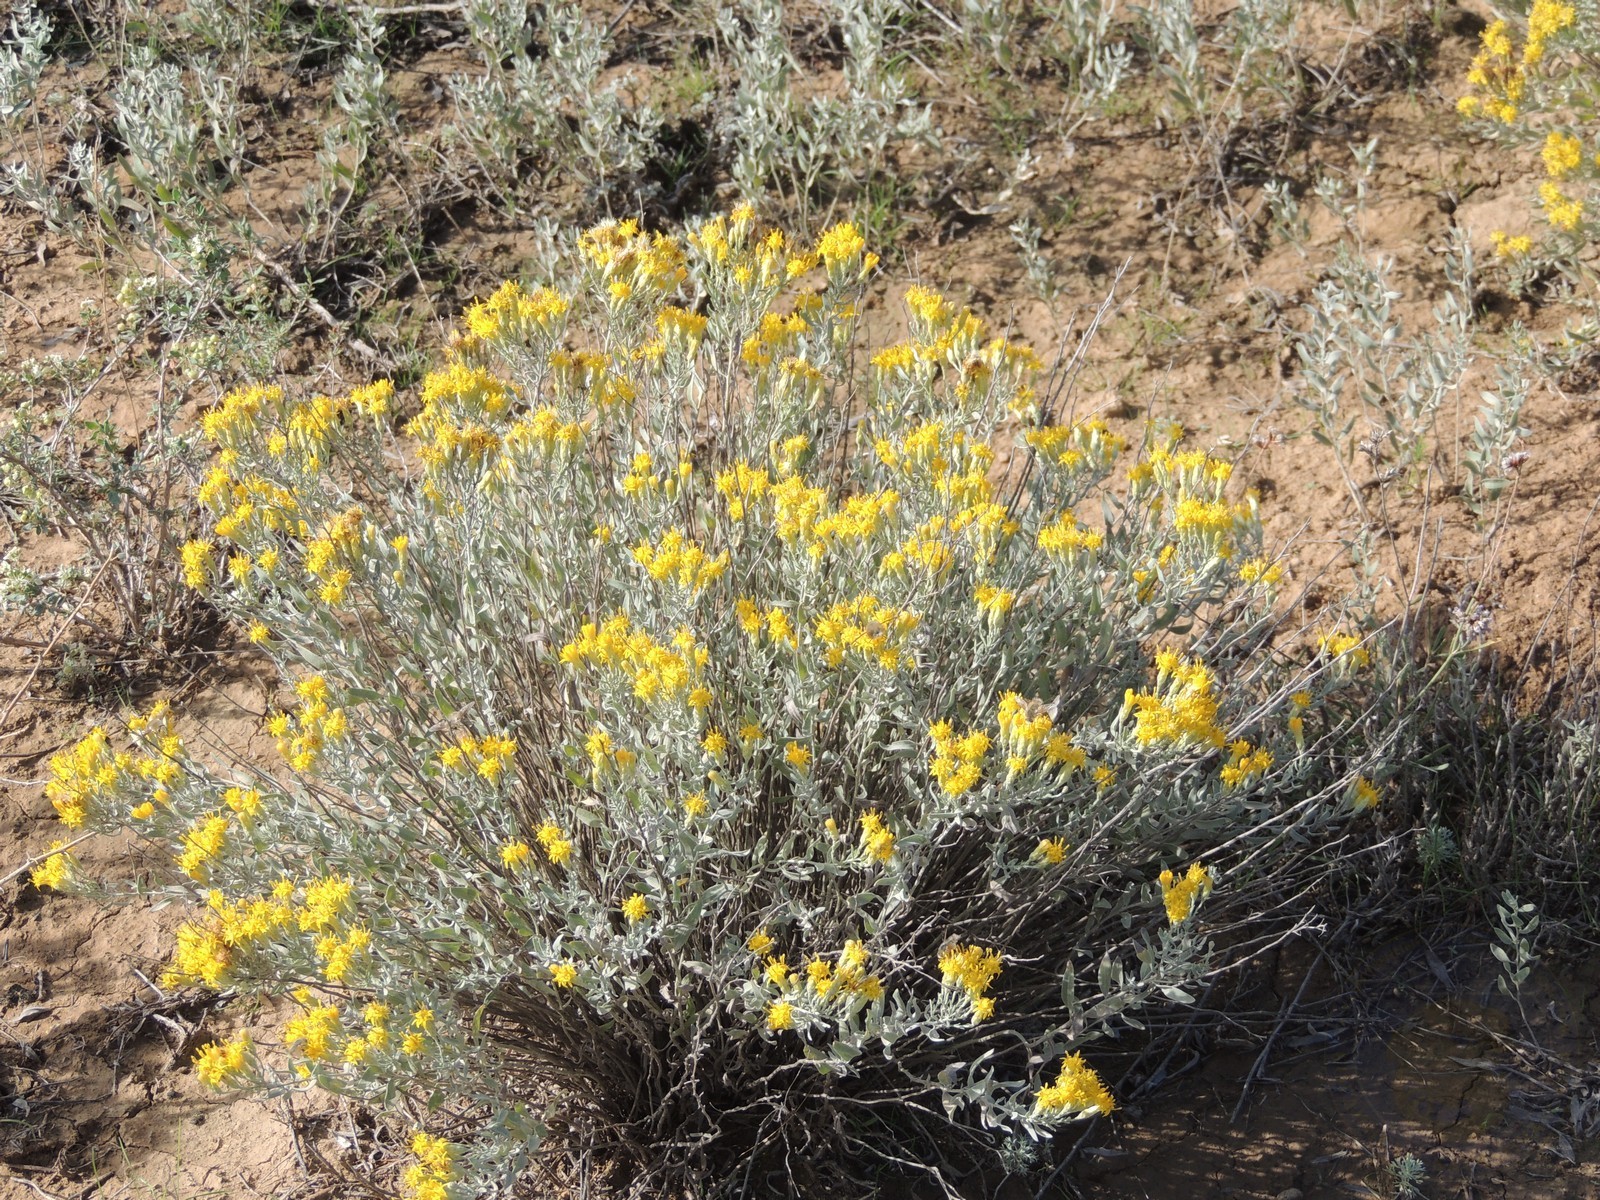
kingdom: Plantae
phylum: Tracheophyta
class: Magnoliopsida
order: Asterales
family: Asteraceae
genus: Galatella
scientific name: Galatella villosa
